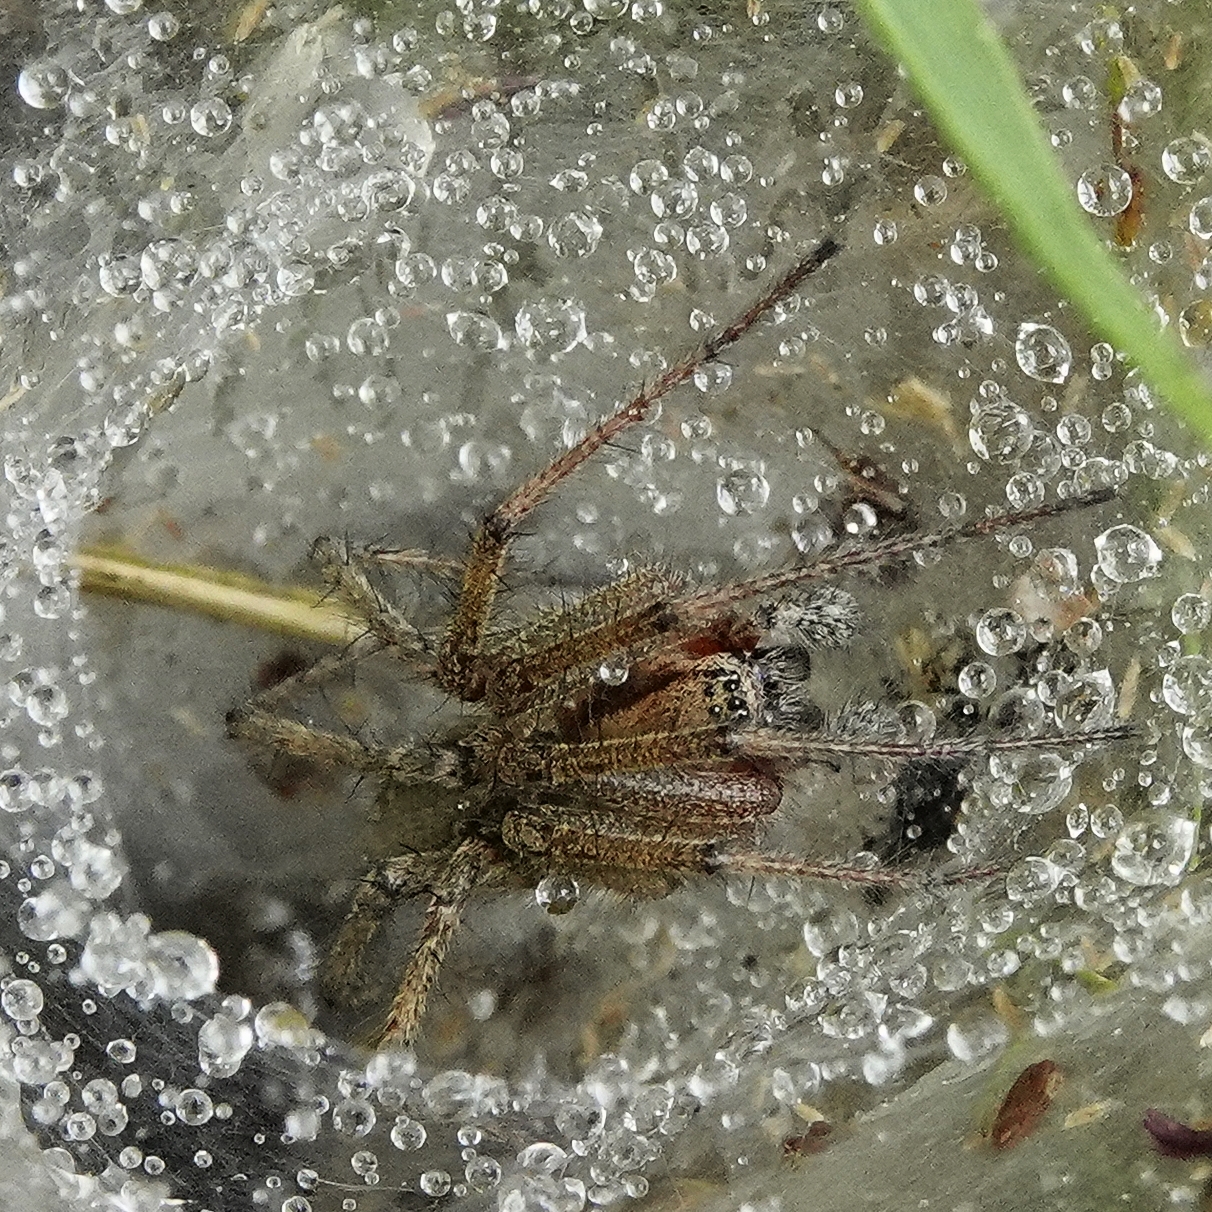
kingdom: Animalia
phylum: Arthropoda
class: Arachnida
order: Araneae
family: Agelenidae
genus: Agelena
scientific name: Agelena labyrinthica
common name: Labyrinth spider
